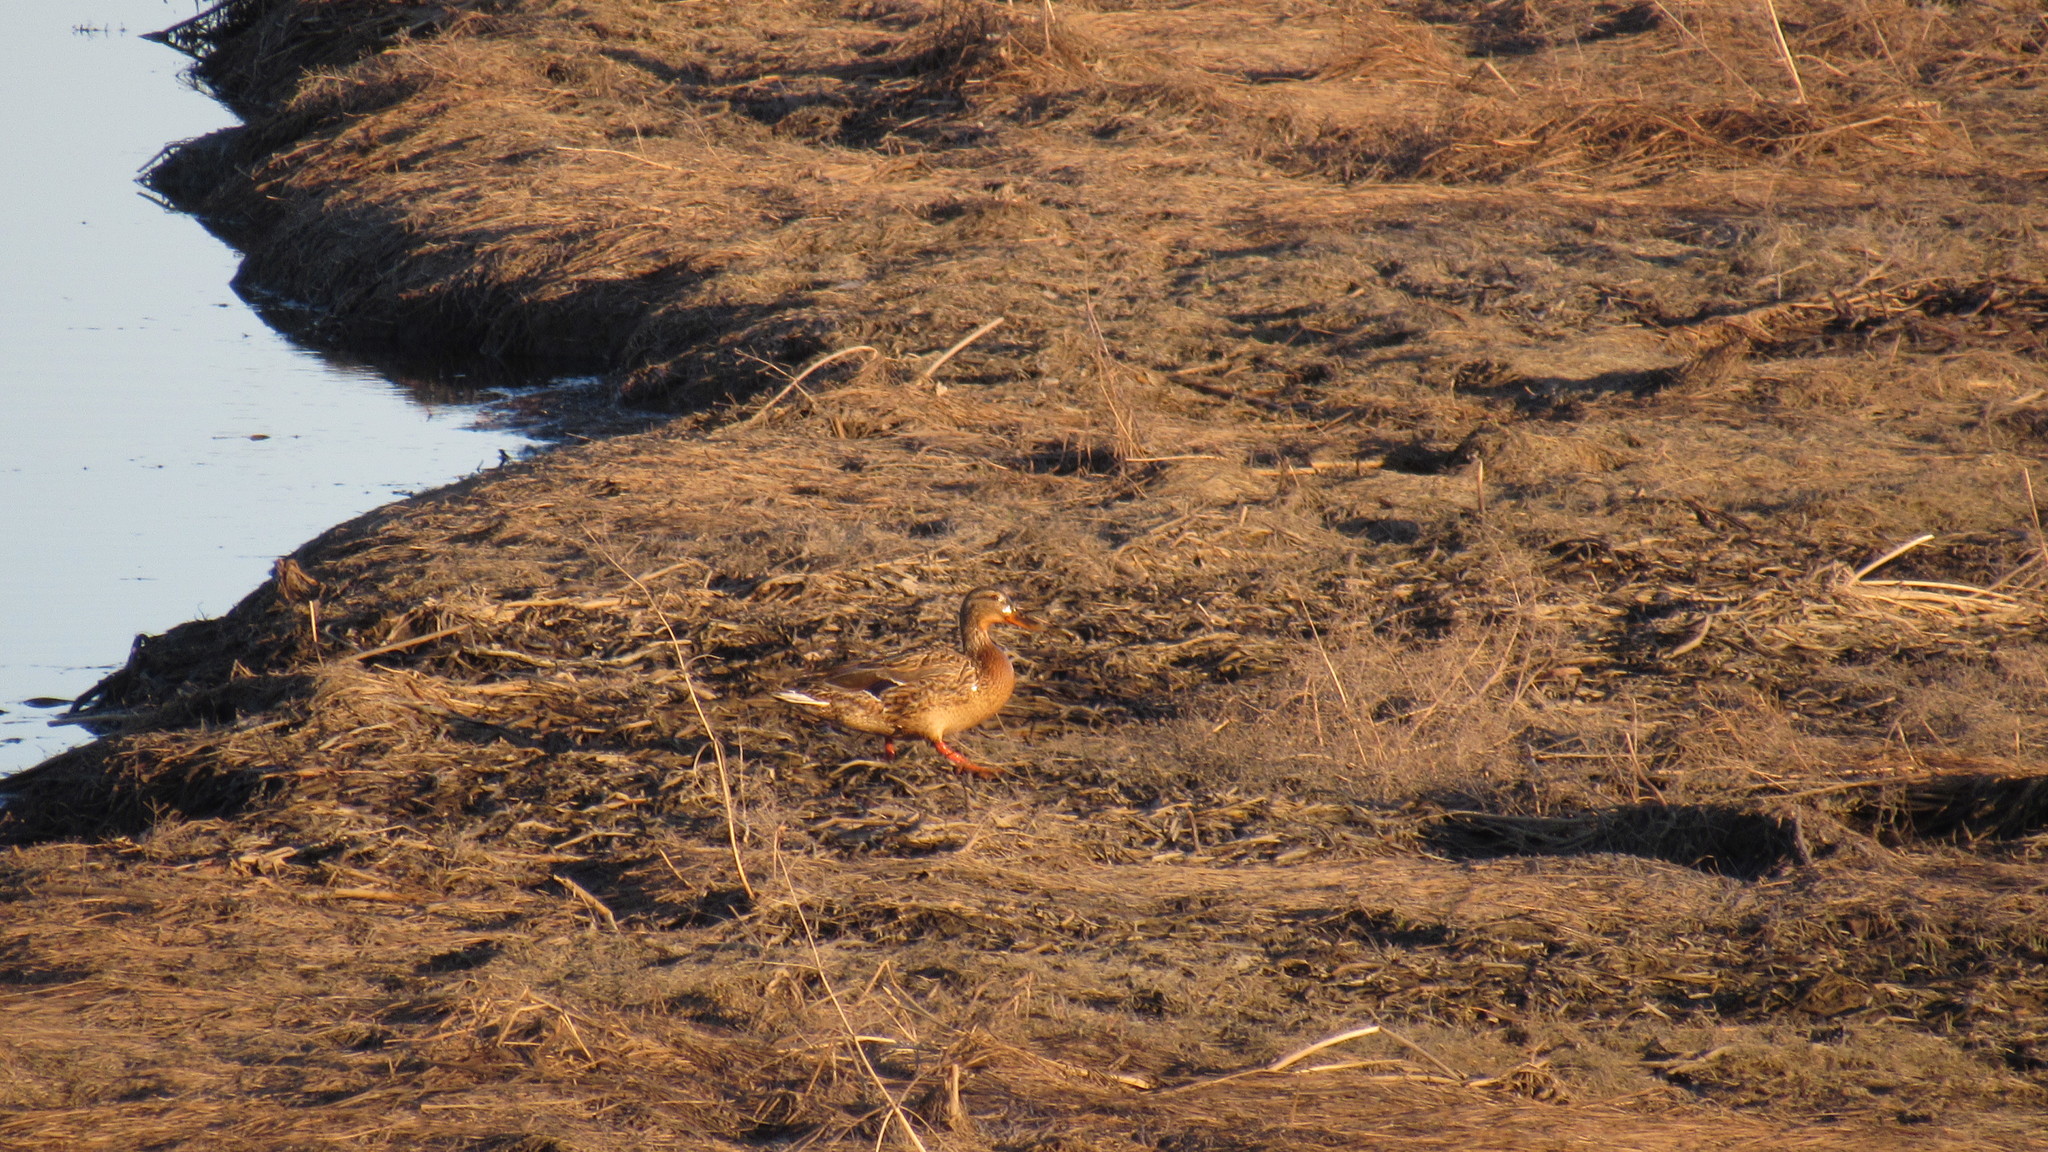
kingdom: Animalia
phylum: Chordata
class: Aves
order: Anseriformes
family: Anatidae
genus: Anas
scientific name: Anas platyrhynchos
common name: Mallard
